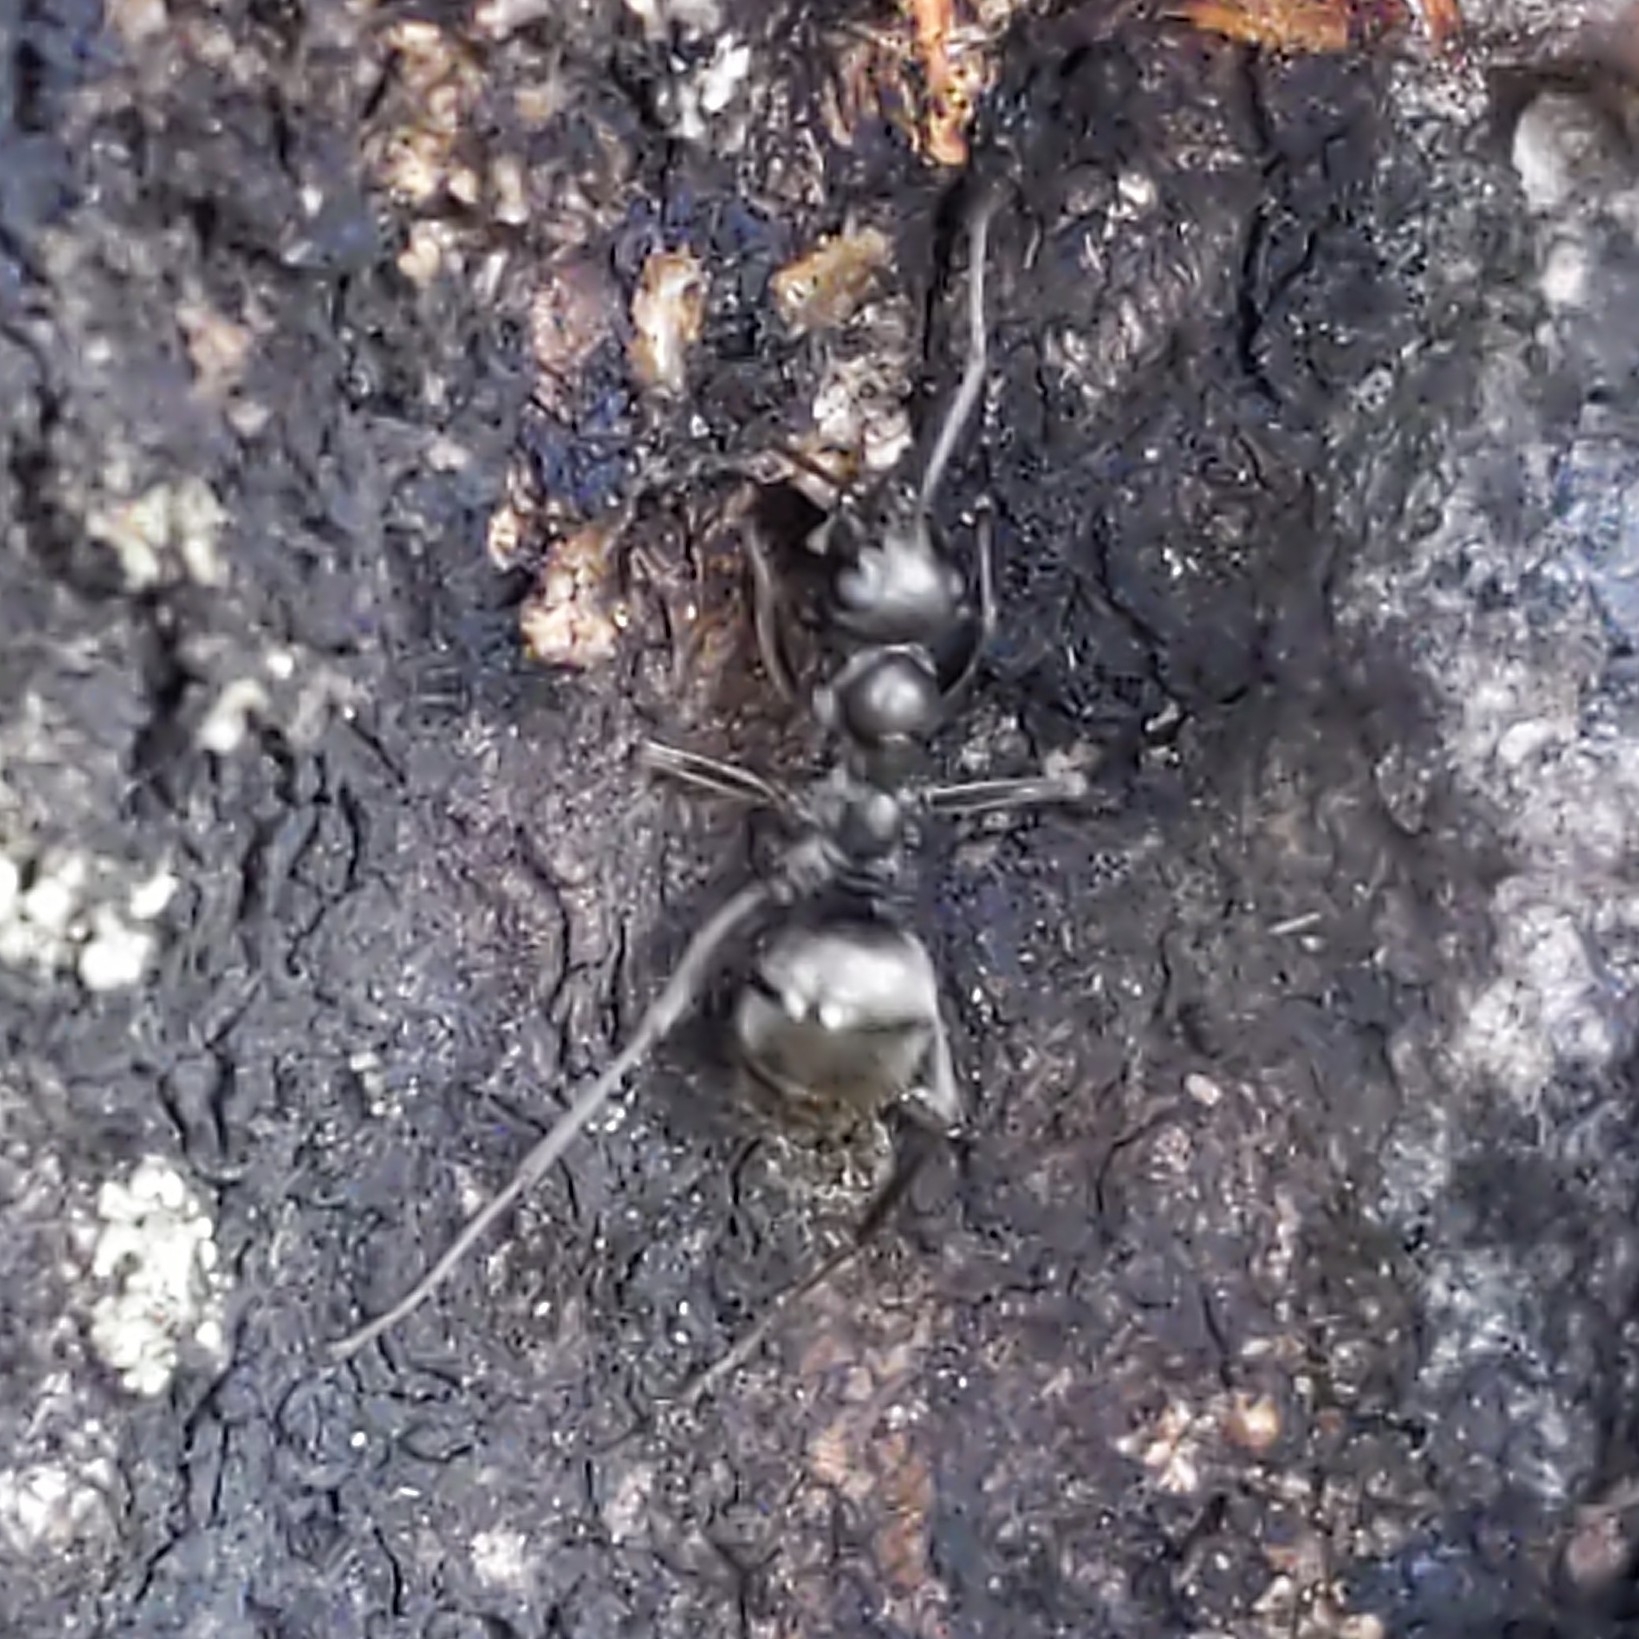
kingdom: Animalia
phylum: Arthropoda
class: Insecta
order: Hymenoptera
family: Formicidae
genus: Formica
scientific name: Formica
